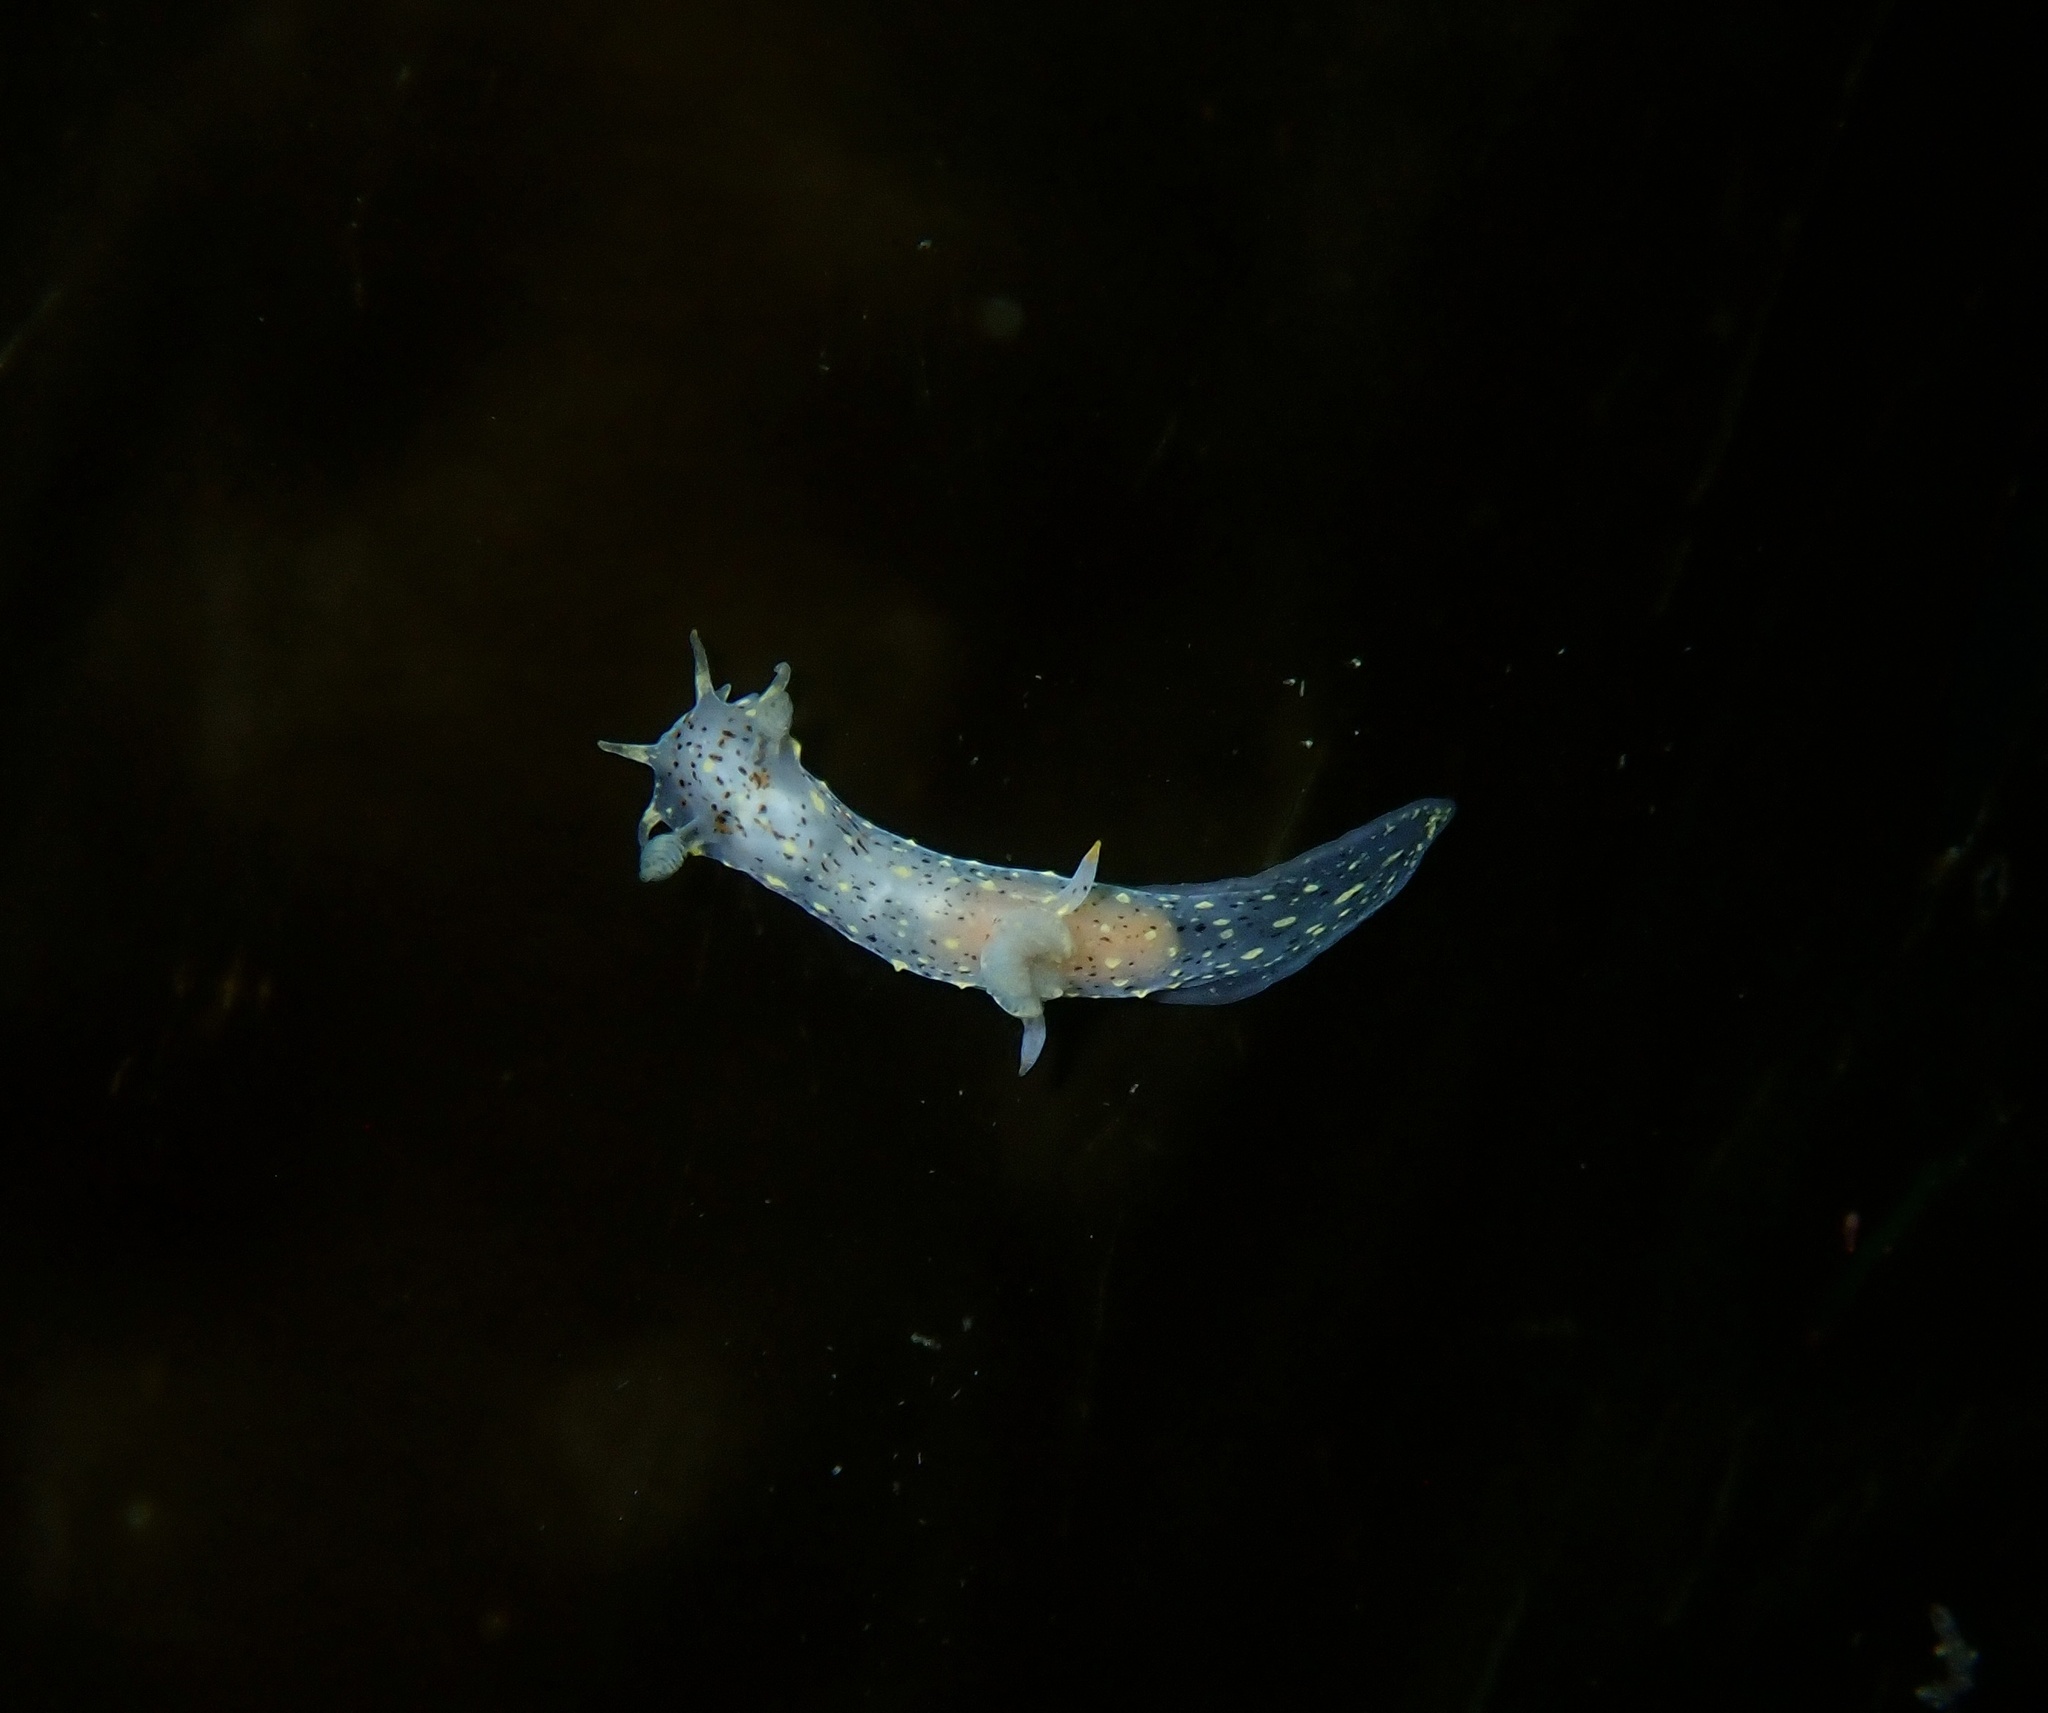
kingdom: Animalia
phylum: Mollusca
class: Gastropoda
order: Nudibranchia
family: Polyceridae
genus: Polycera
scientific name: Polycera norvegica
